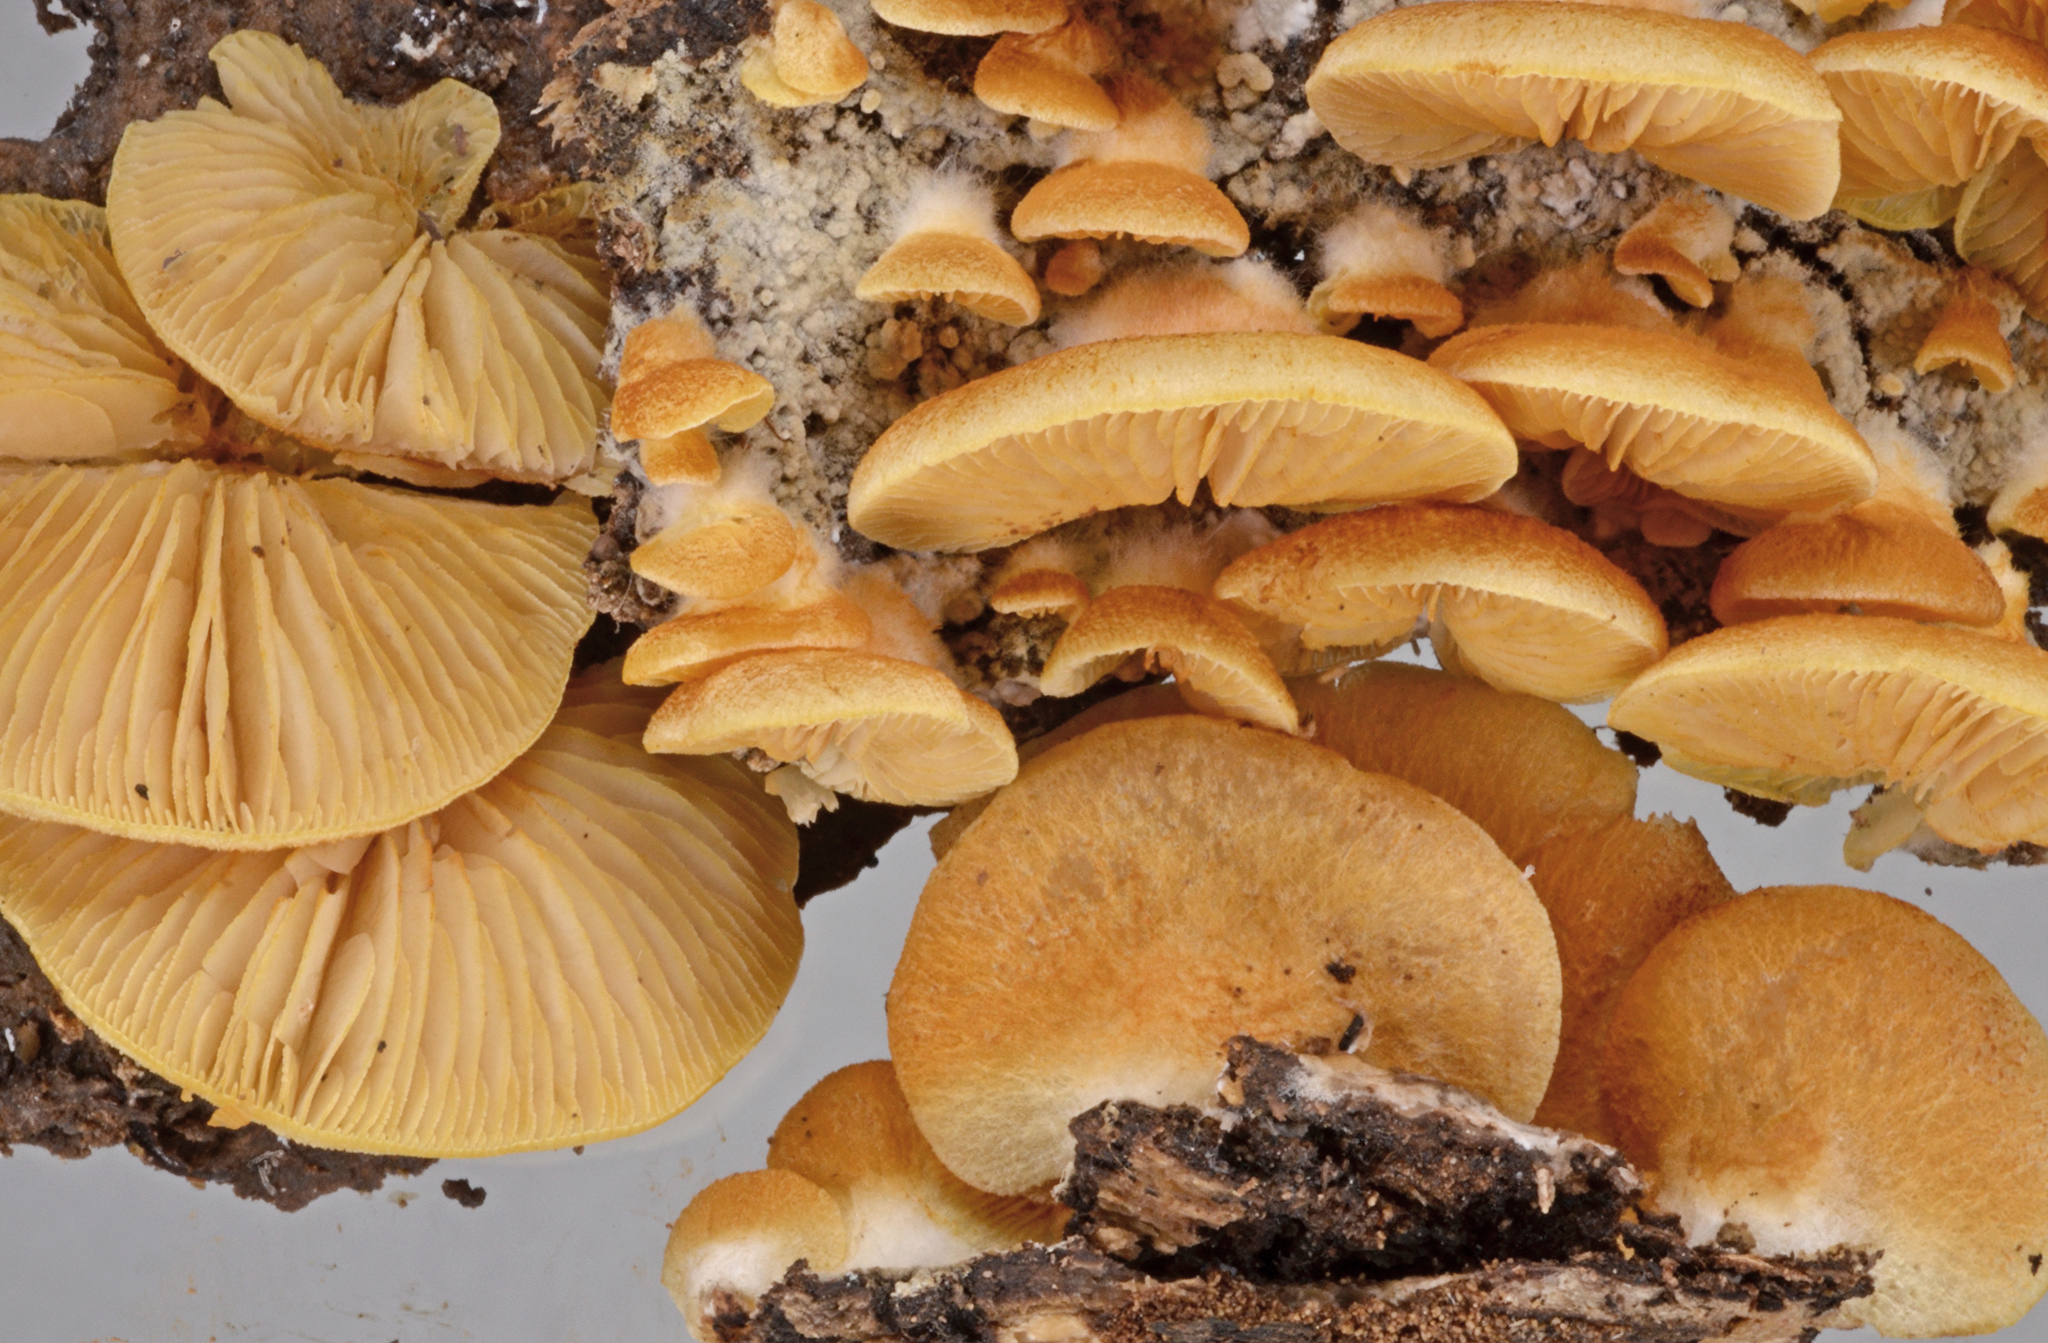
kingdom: Fungi
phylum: Basidiomycota
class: Agaricomycetes
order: Agaricales
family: Crepidotaceae
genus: Crepidotus
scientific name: Crepidotus praecipuus
